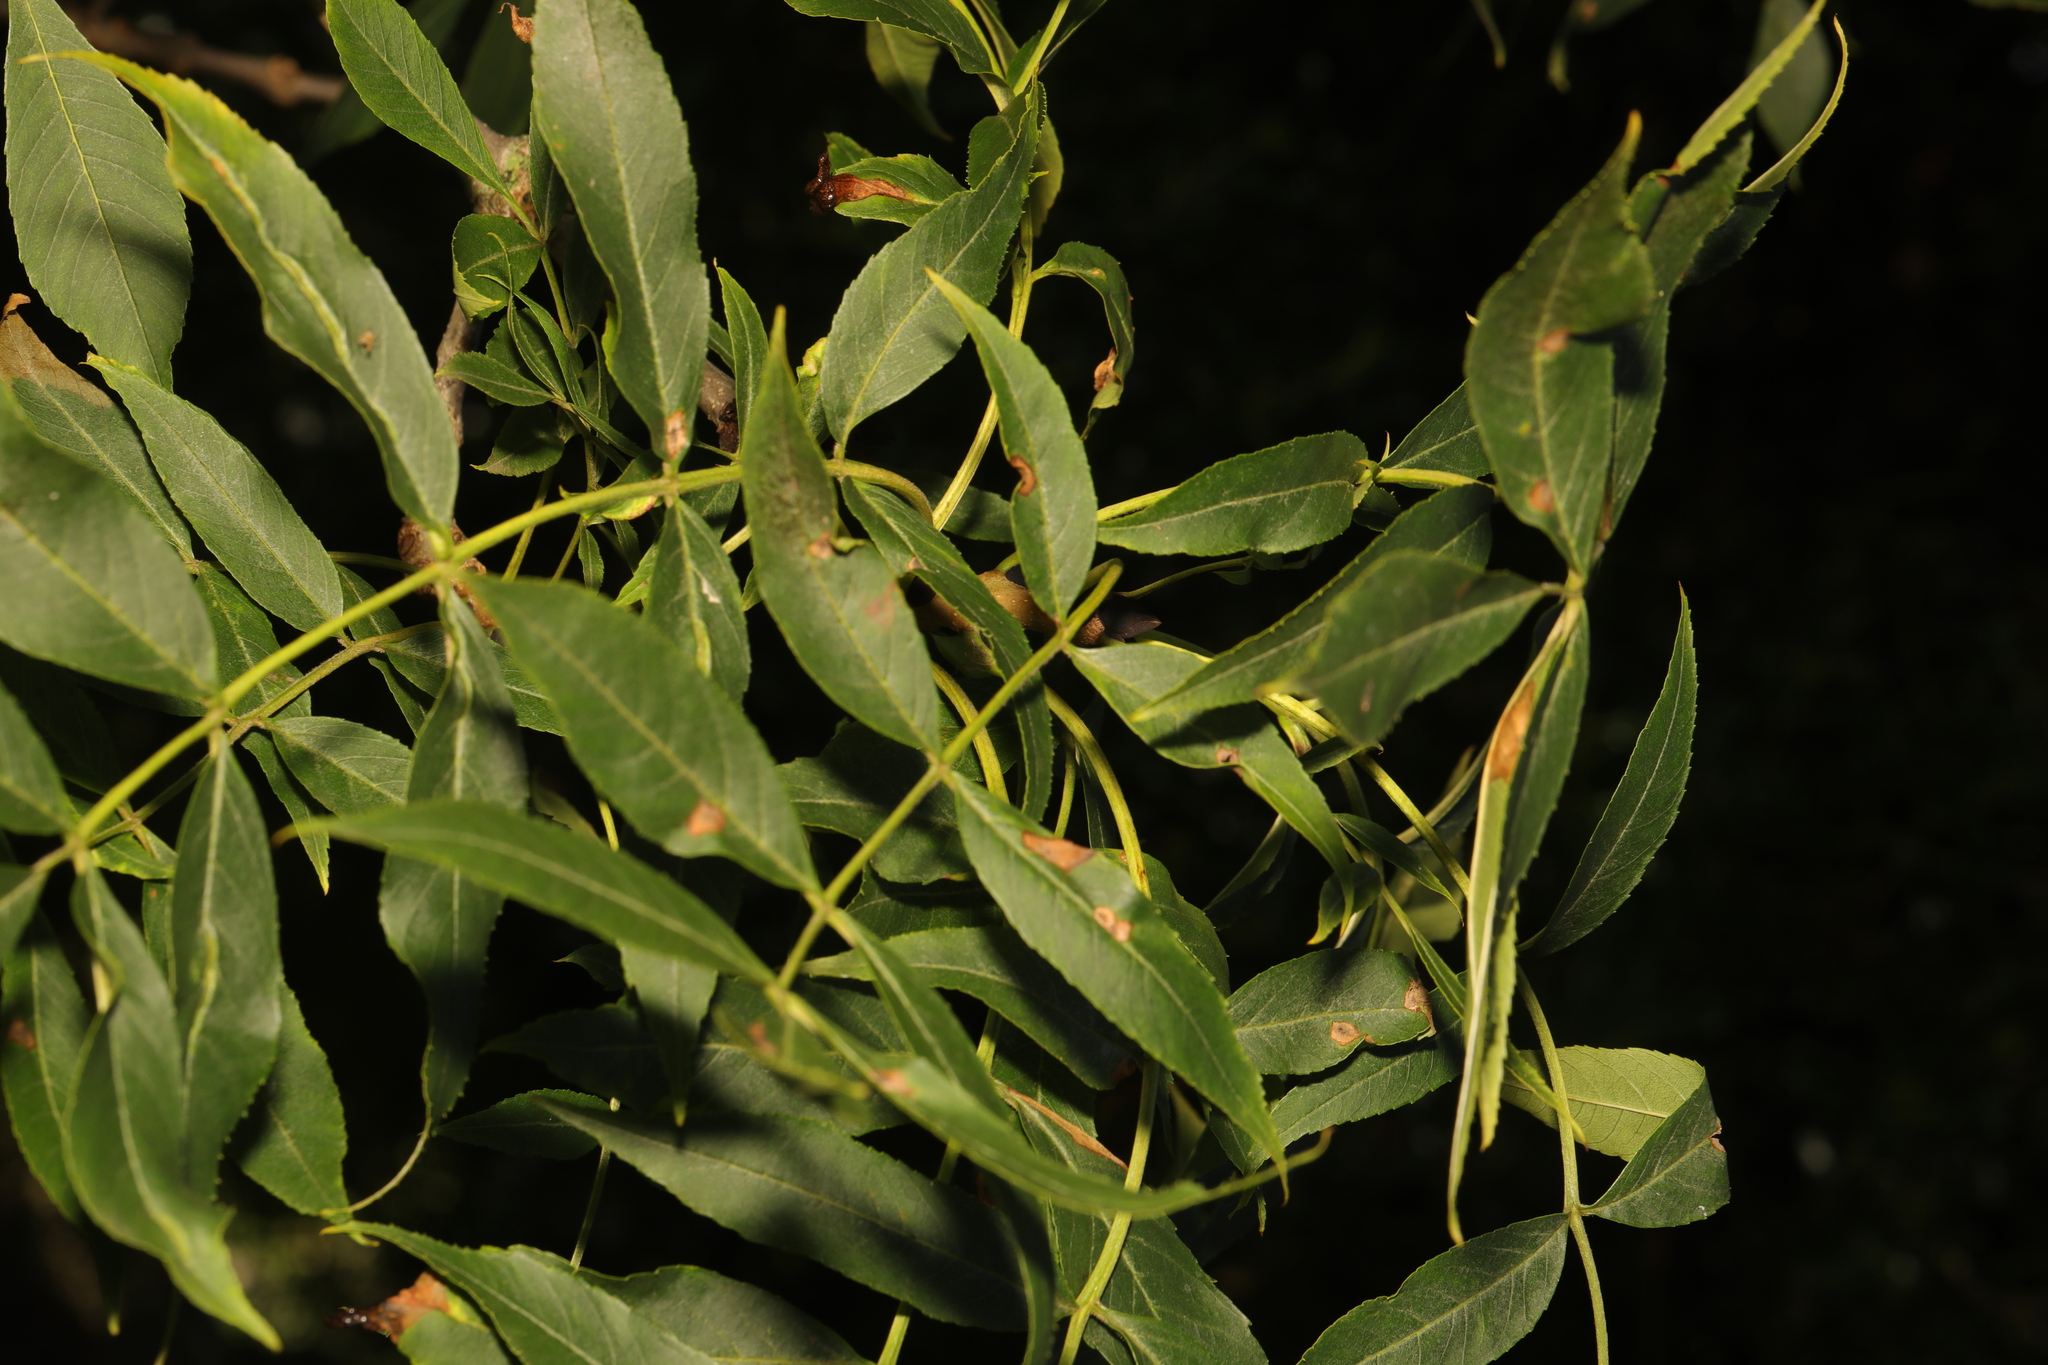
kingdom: Plantae
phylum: Tracheophyta
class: Magnoliopsida
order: Lamiales
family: Oleaceae
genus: Fraxinus
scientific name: Fraxinus excelsior
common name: European ash
